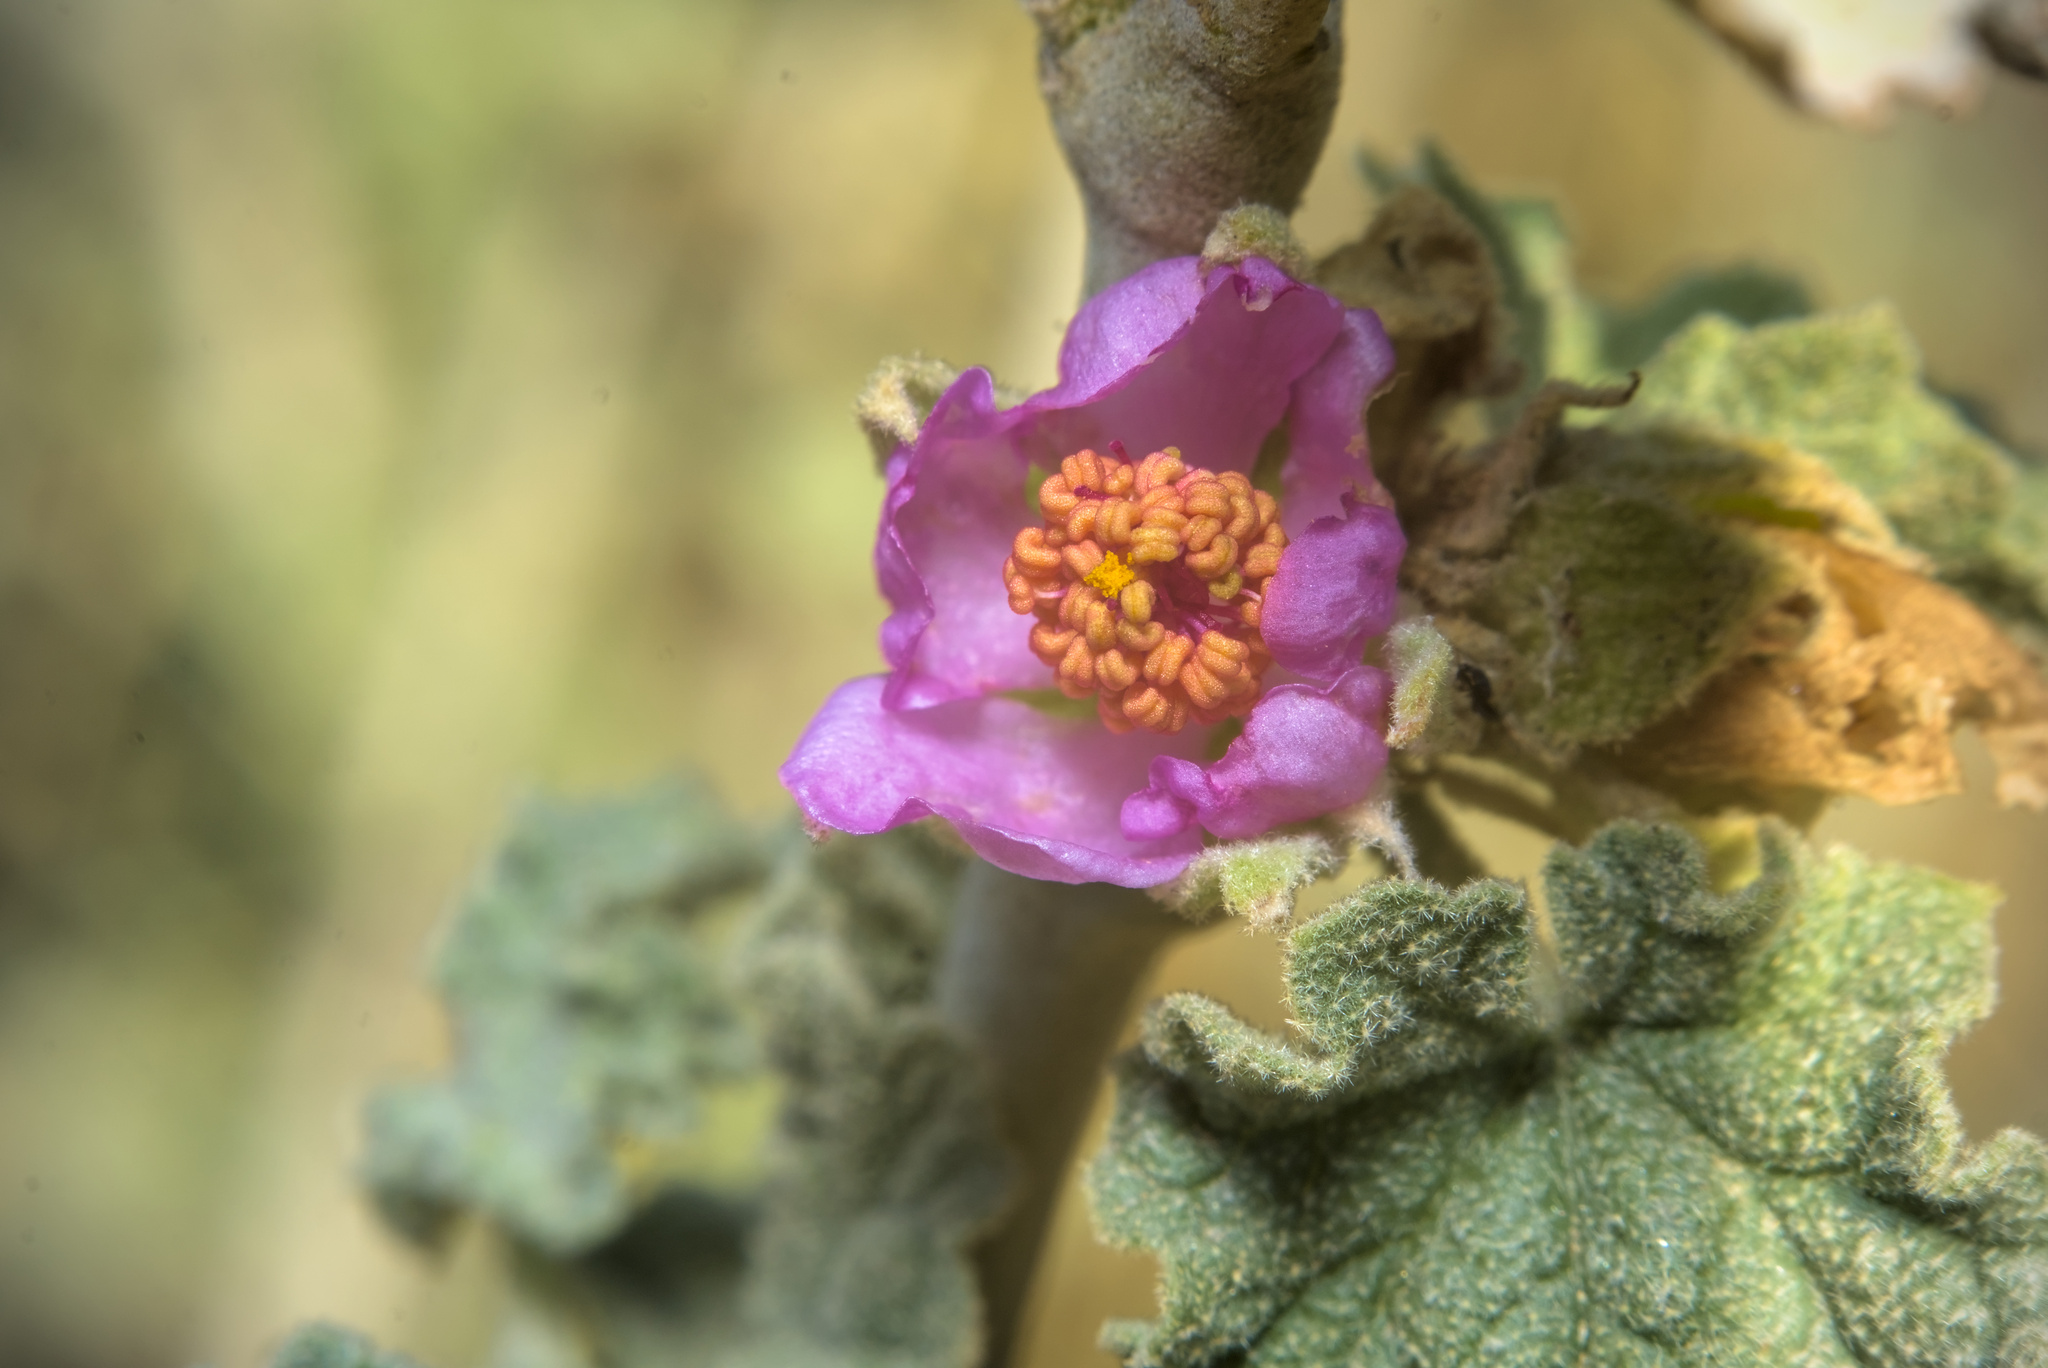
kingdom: Plantae
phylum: Tracheophyta
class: Magnoliopsida
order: Malvales
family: Malvaceae
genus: Malacothamnus
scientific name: Malacothamnus enigmaticus
